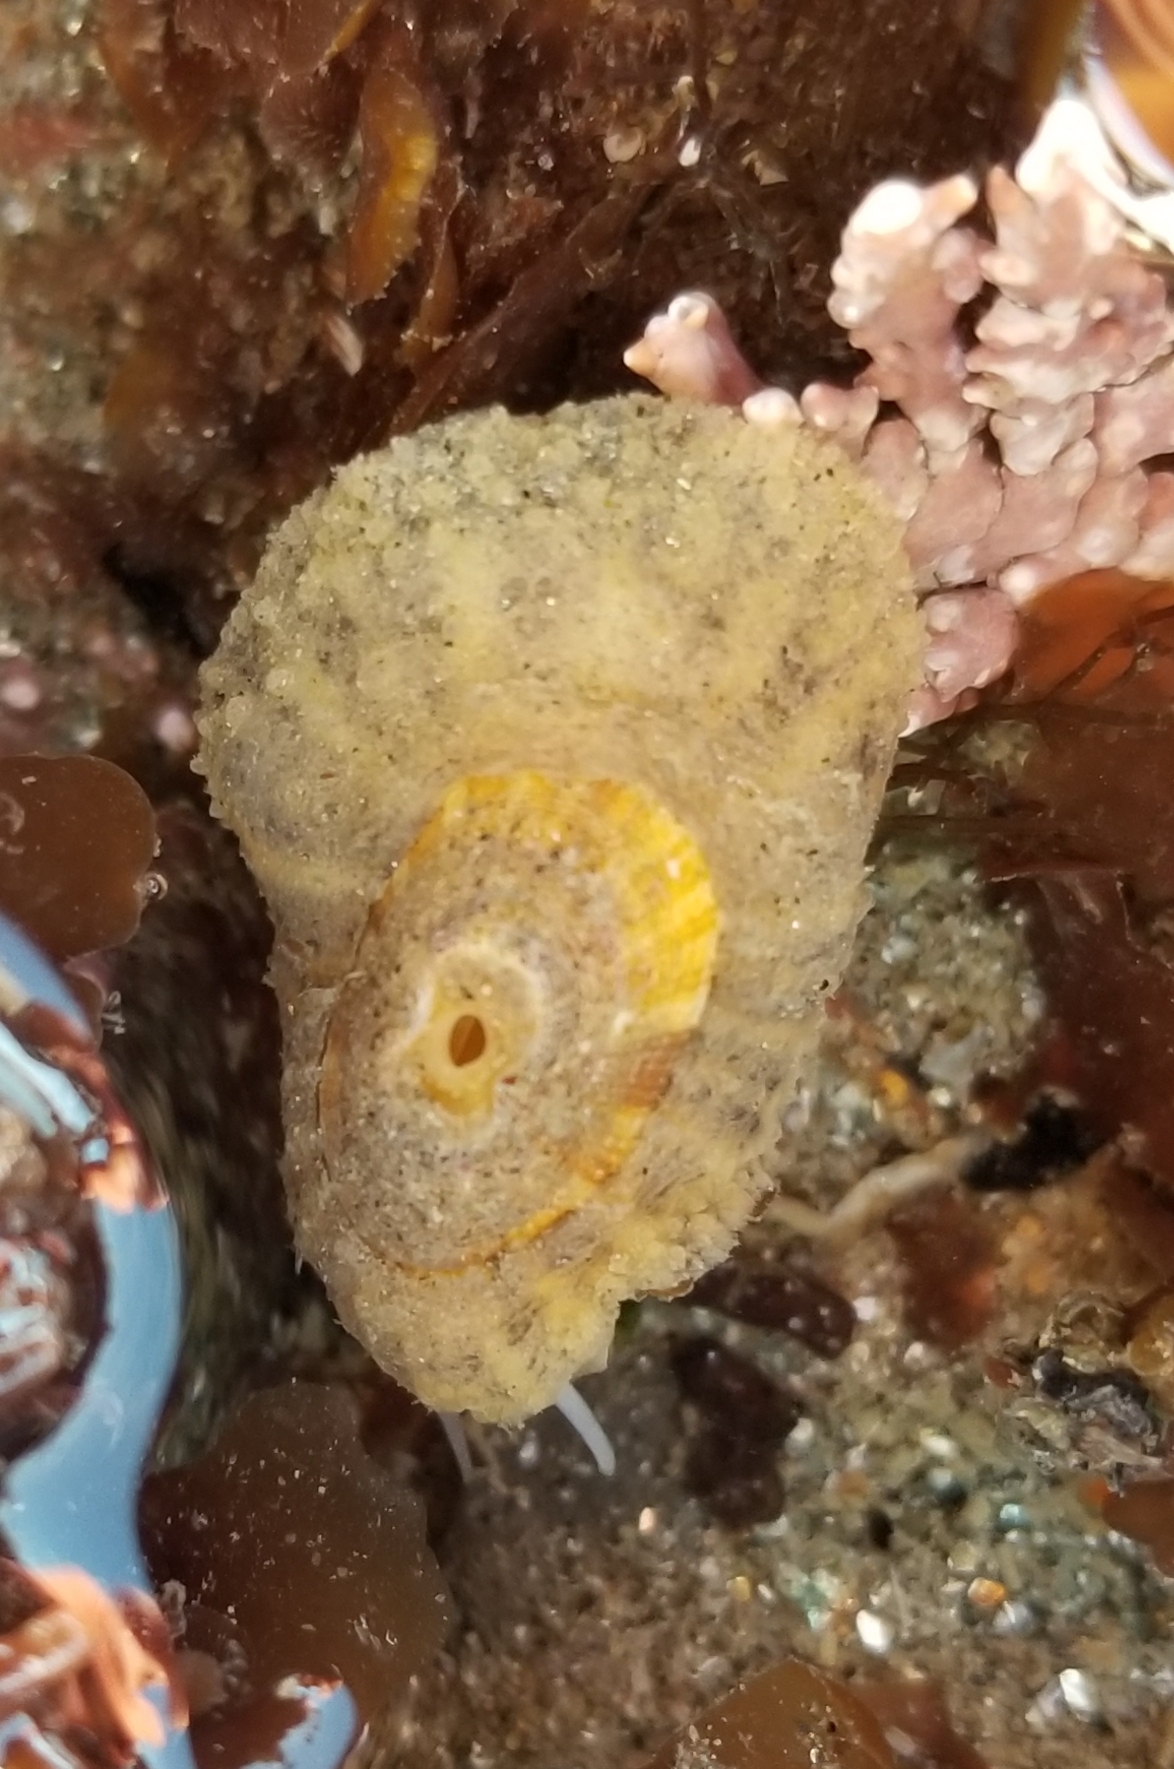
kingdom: Animalia
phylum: Mollusca
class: Gastropoda
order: Lepetellida
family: Fissurellidae
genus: Fissurellidea
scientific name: Fissurellidea bimaculata
